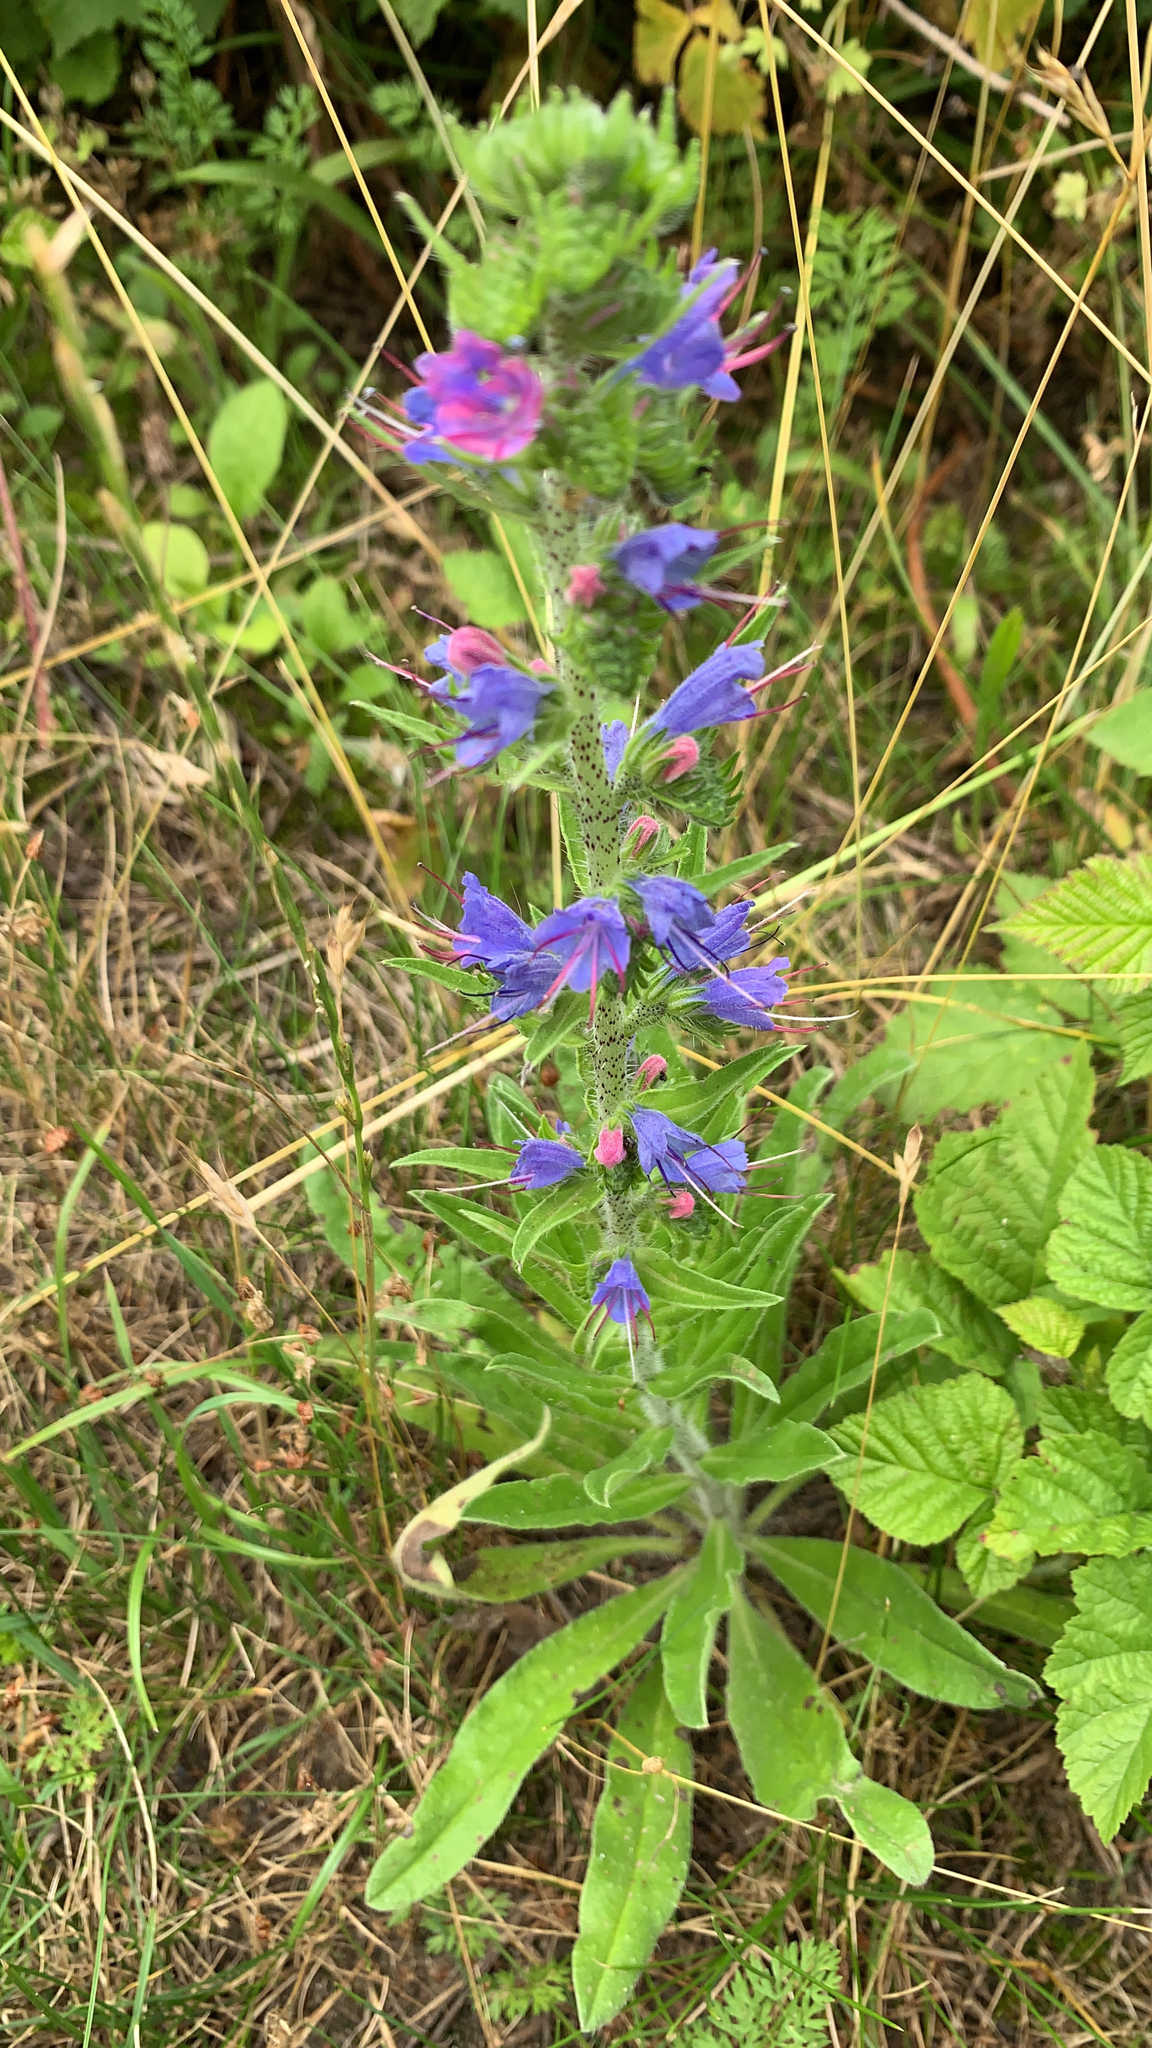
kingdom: Plantae
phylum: Tracheophyta
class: Magnoliopsida
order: Boraginales
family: Boraginaceae
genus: Echium
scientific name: Echium vulgare
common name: Common viper's bugloss
